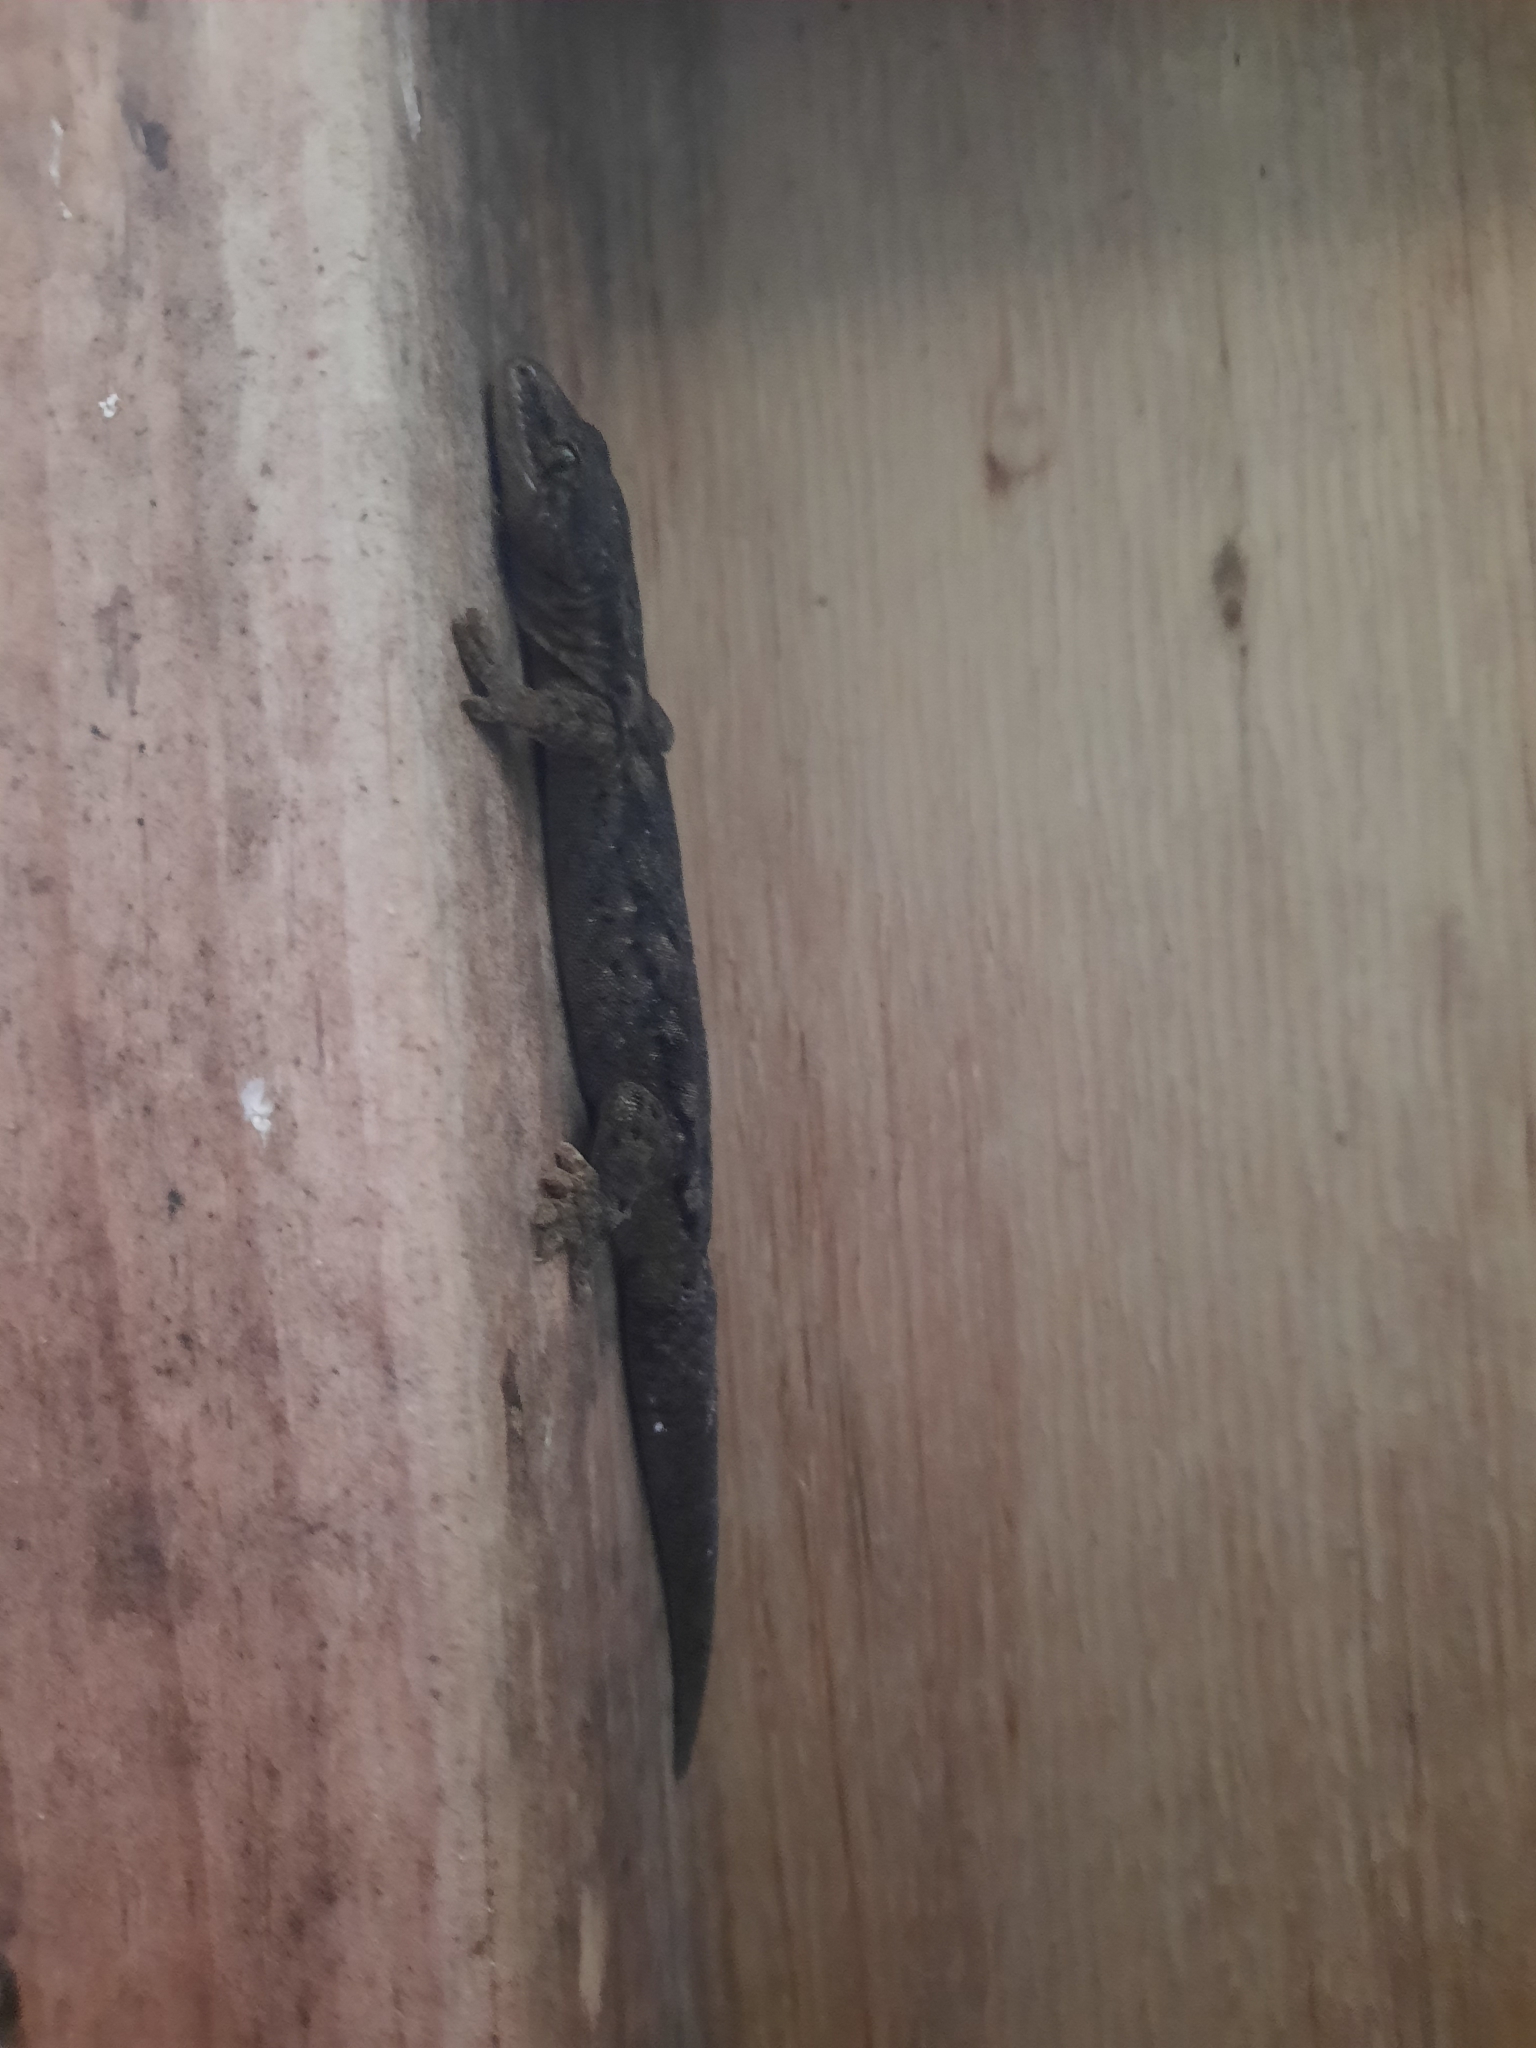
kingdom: Animalia
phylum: Chordata
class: Squamata
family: Diplodactylidae
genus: Woodworthia
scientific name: Woodworthia maculata
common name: Raukawa gecko
